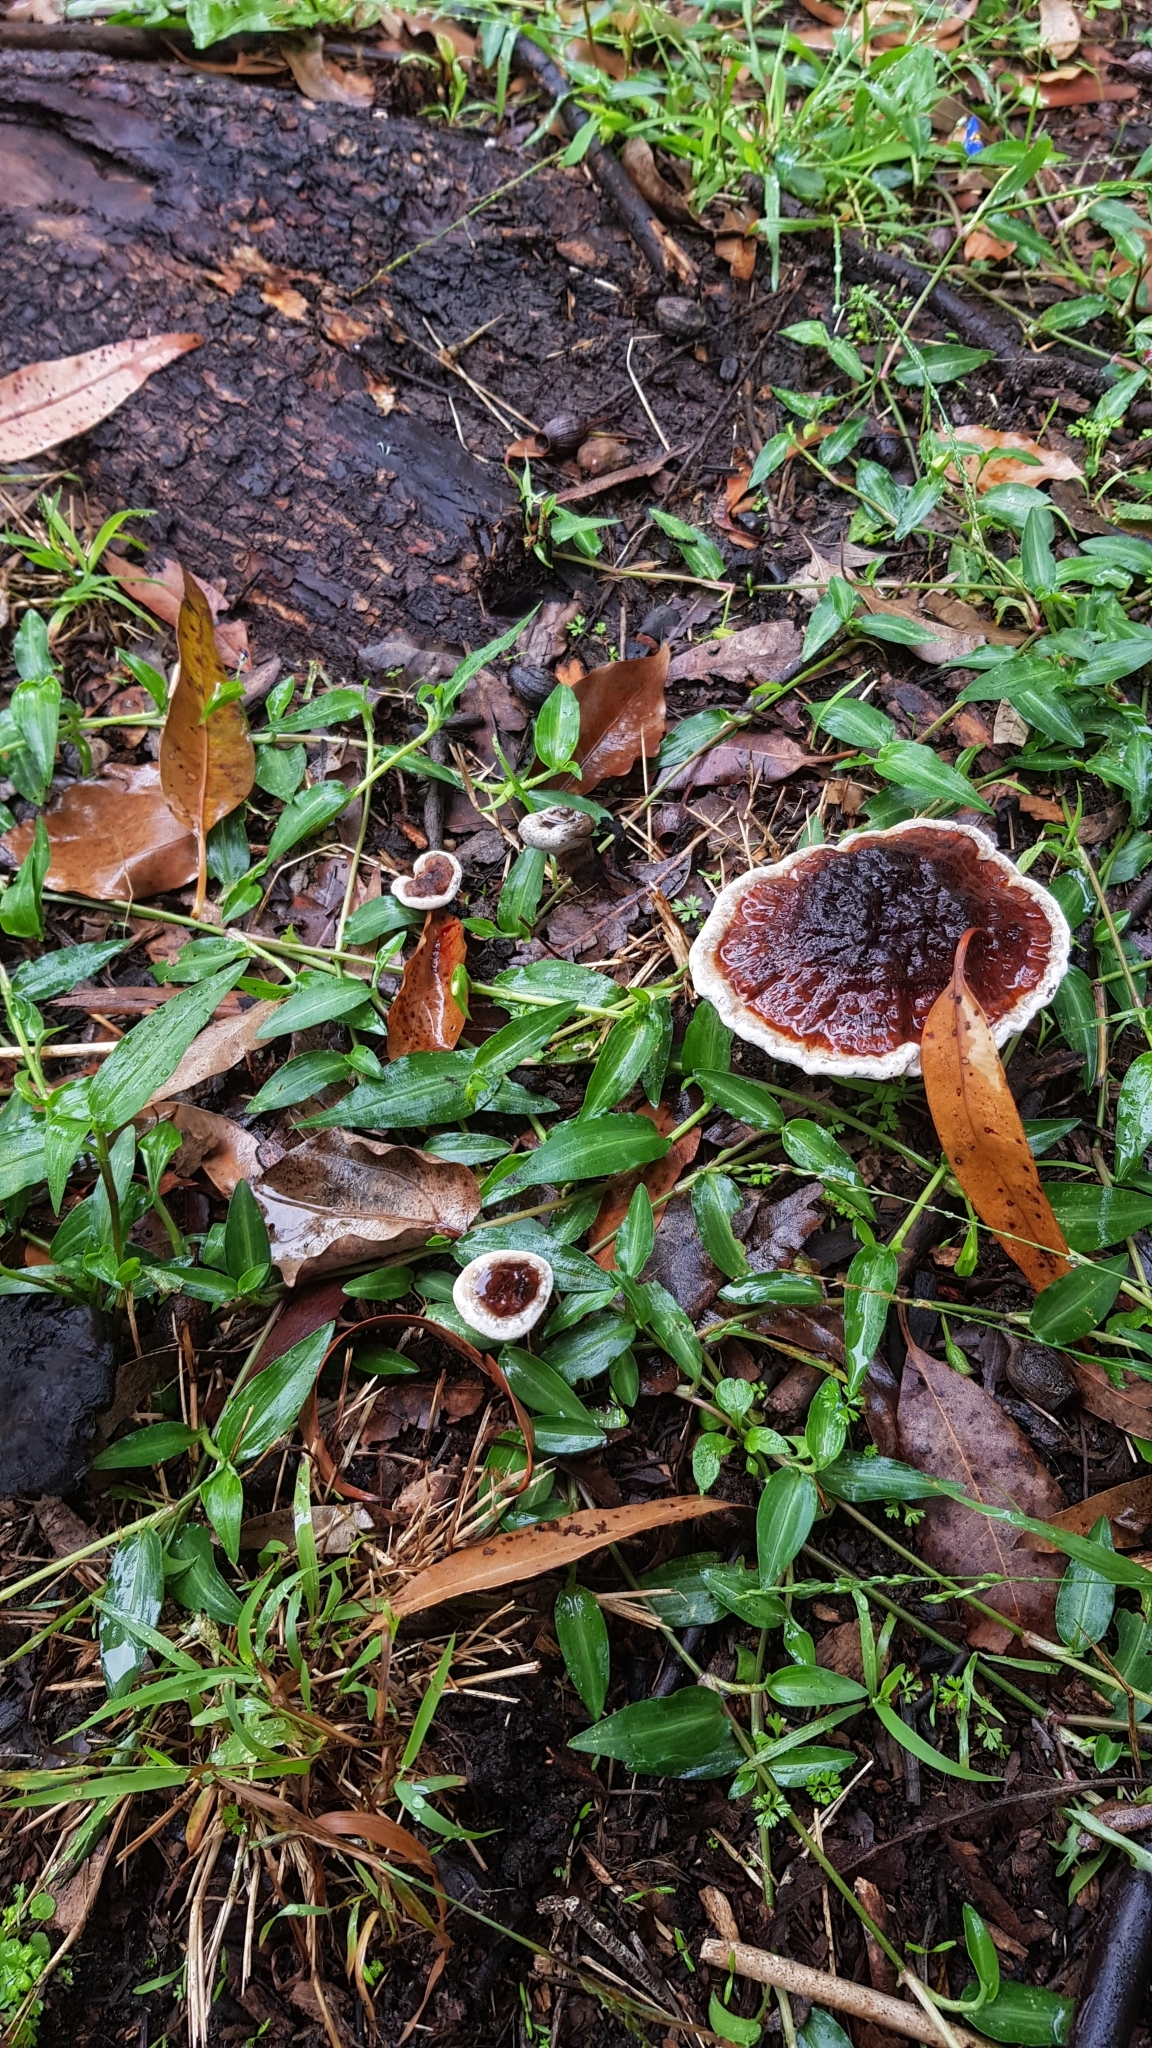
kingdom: Fungi
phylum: Basidiomycota
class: Agaricomycetes
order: Polyporales
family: Ganodermataceae
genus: Sanguinoderma
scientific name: Sanguinoderma rude
